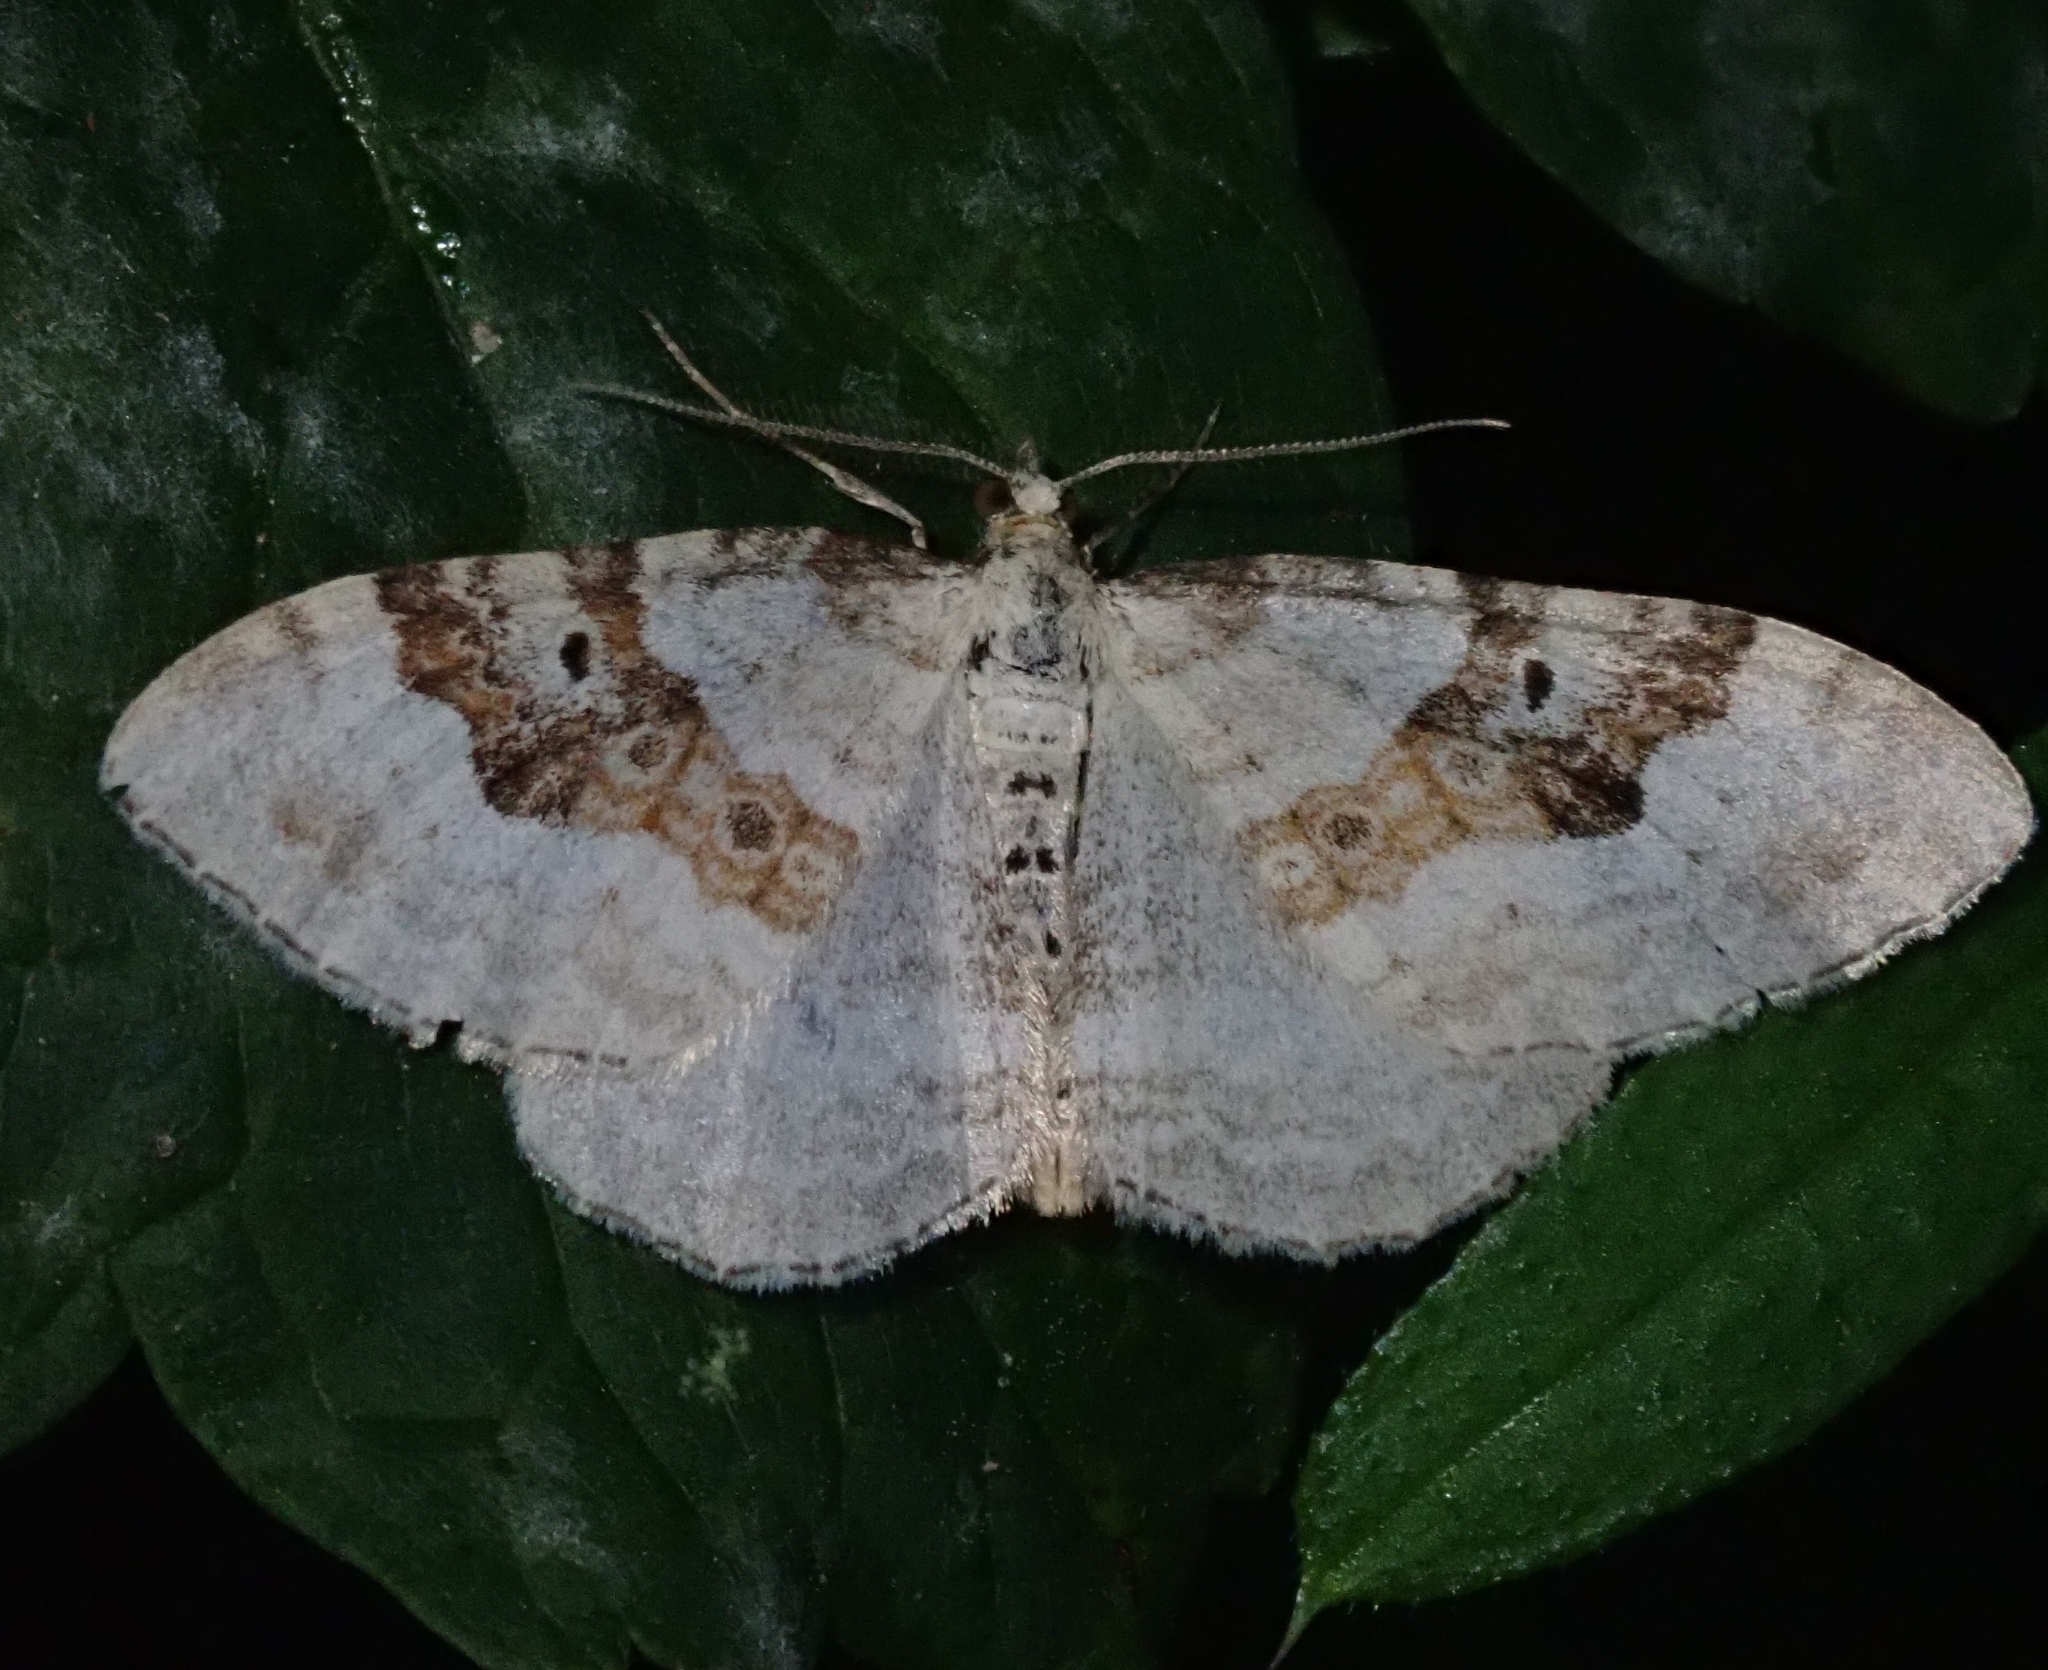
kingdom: Animalia
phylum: Arthropoda
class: Insecta
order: Lepidoptera
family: Geometridae
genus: Xanthorhoe
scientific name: Xanthorhoe montanata
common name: Silver-ground carpet
